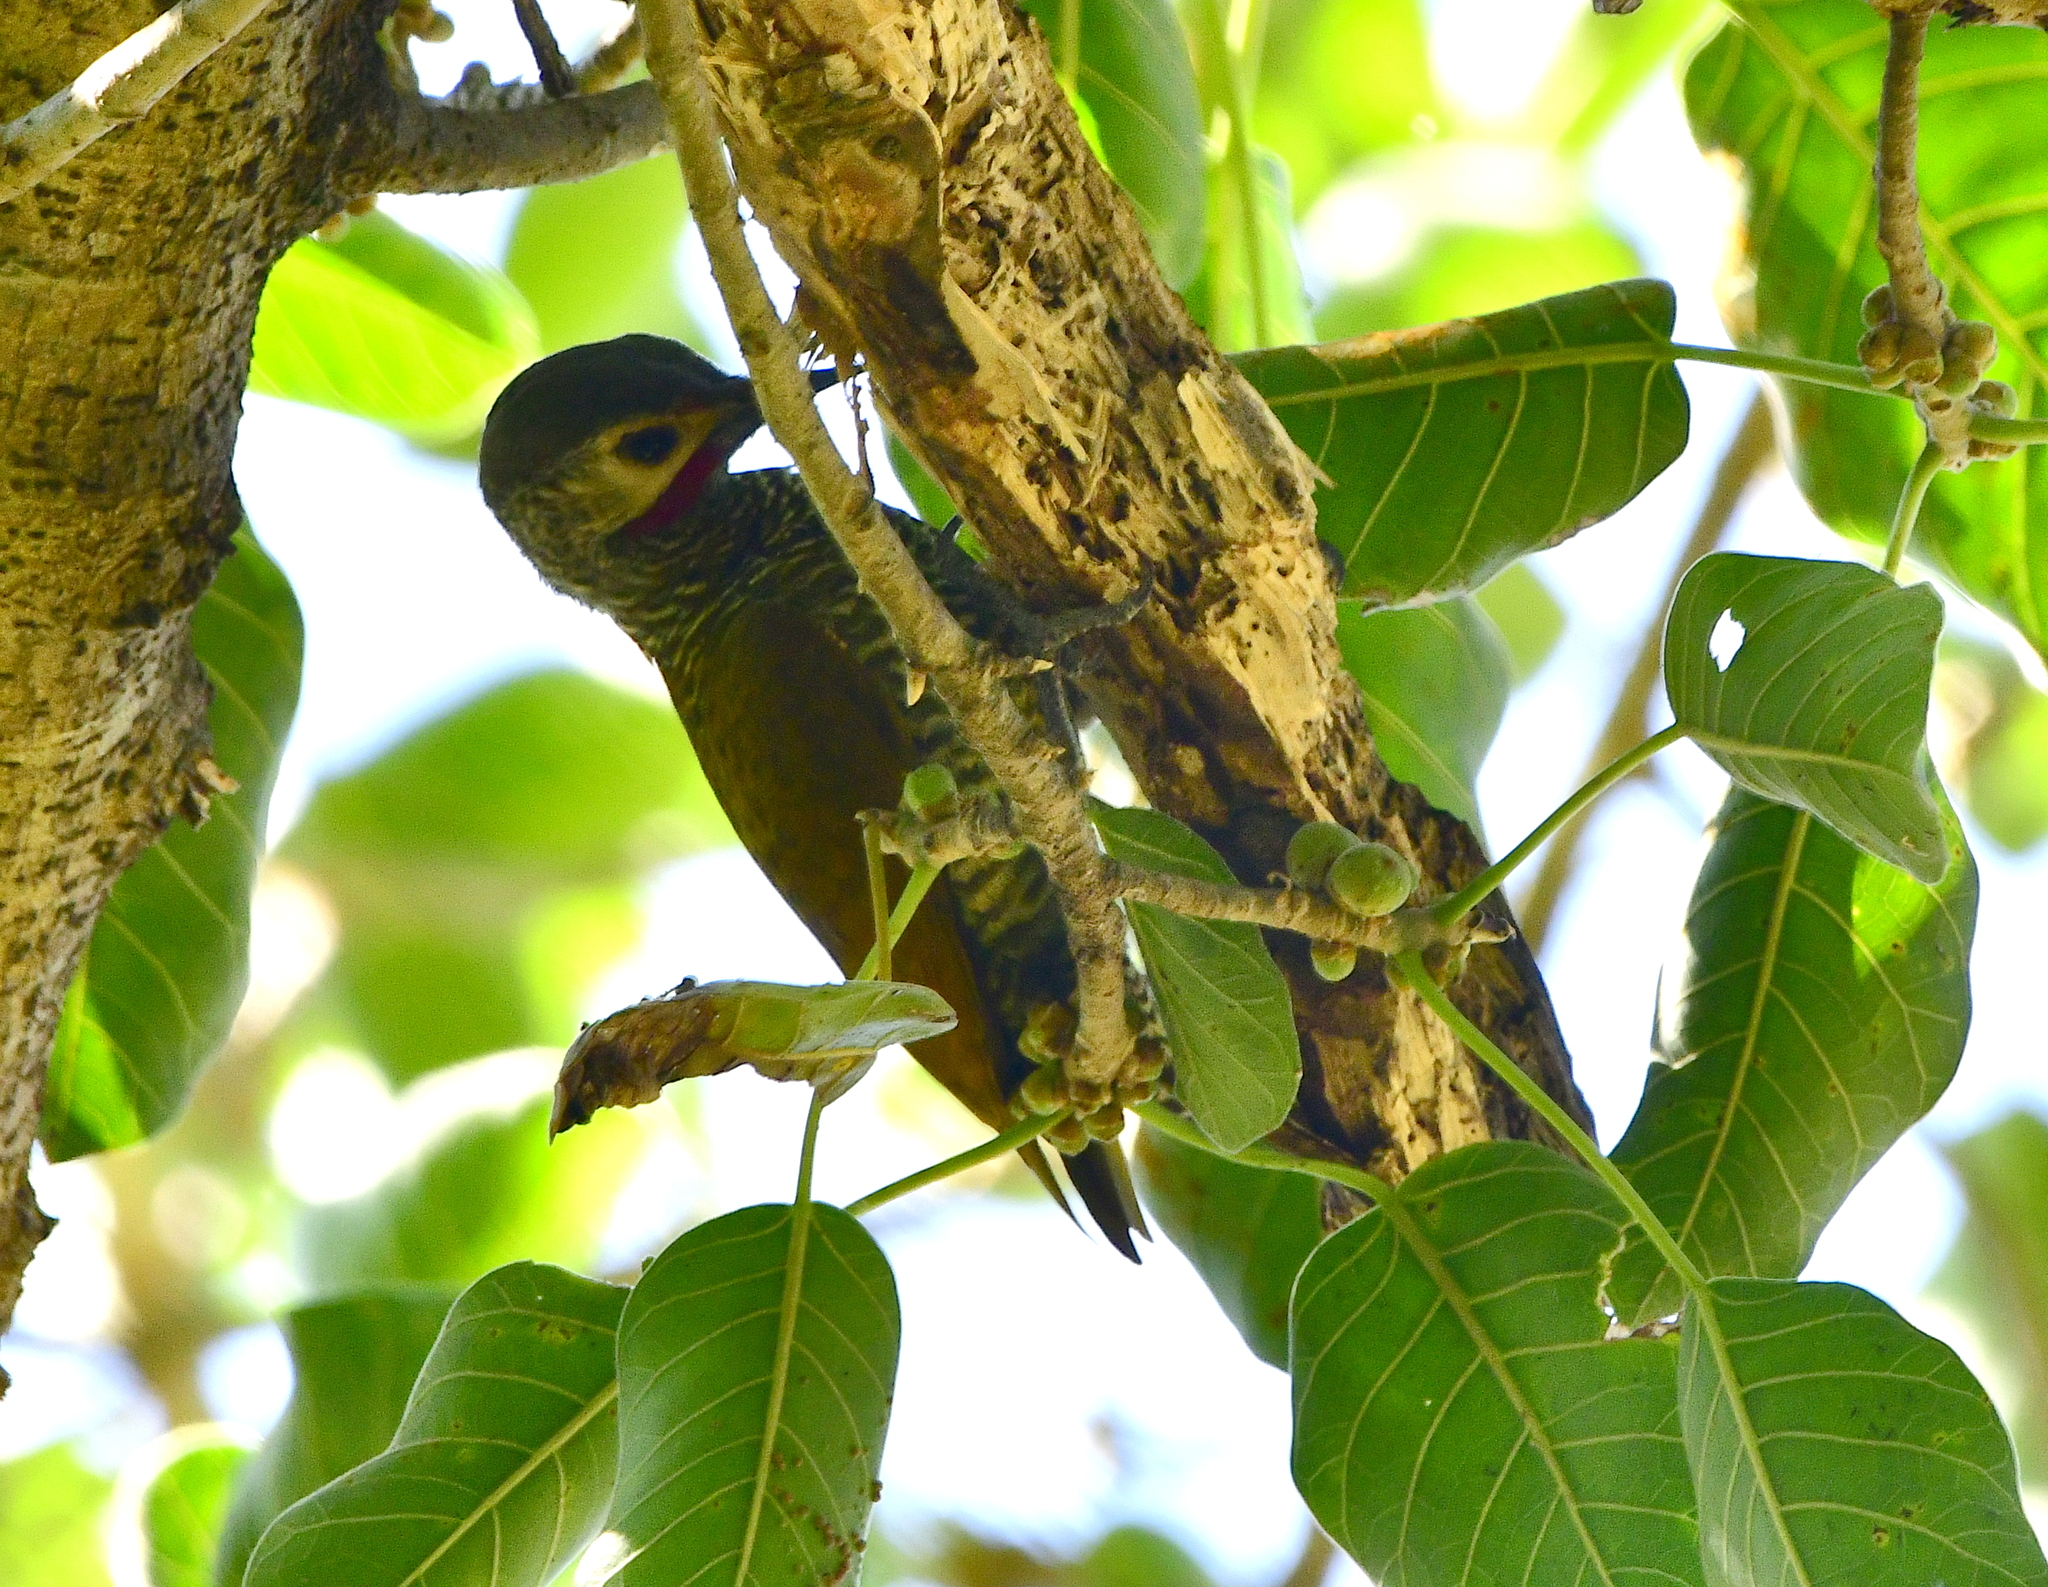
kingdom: Animalia
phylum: Chordata
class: Aves
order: Piciformes
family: Picidae
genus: Colaptes
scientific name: Colaptes auricularis
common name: Grey-crowned woodpecker
